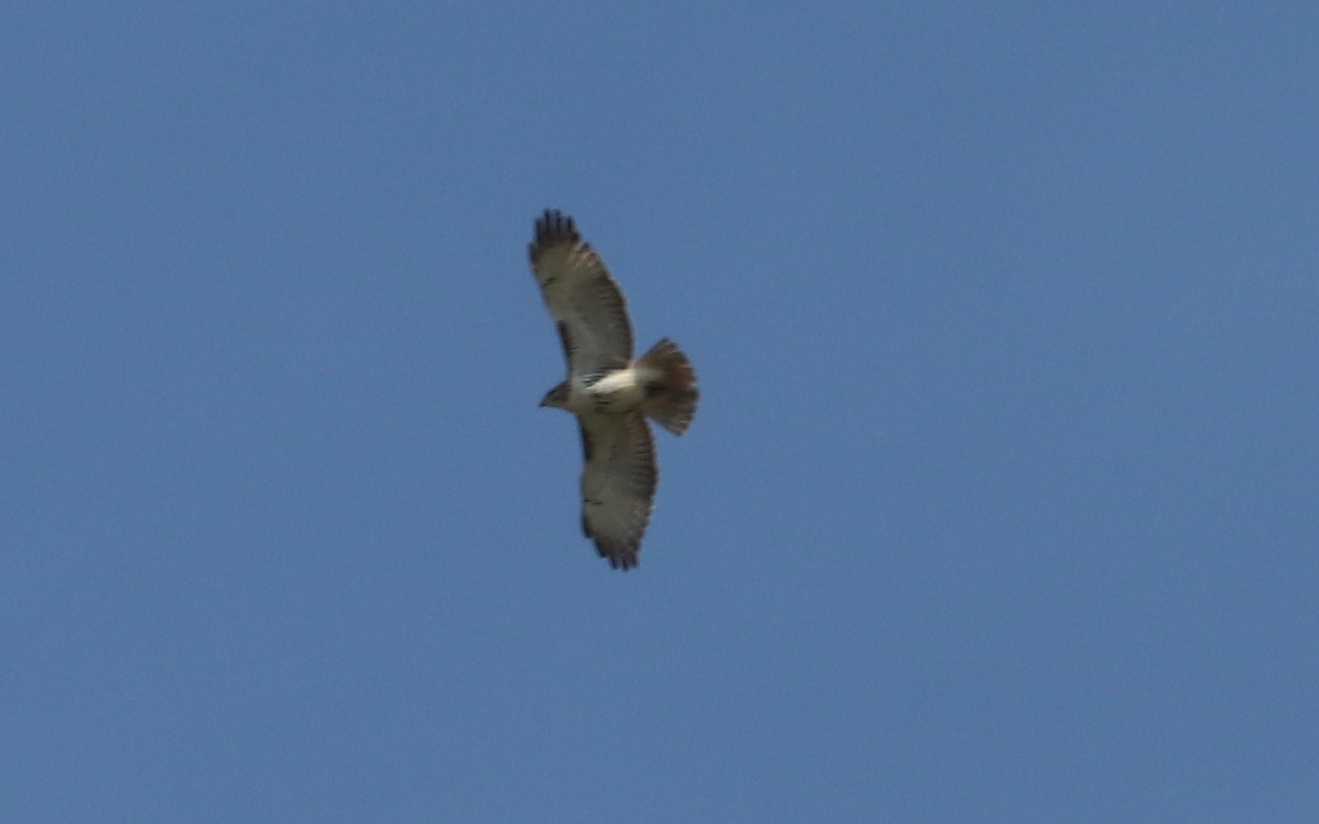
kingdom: Animalia
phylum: Chordata
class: Aves
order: Accipitriformes
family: Accipitridae
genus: Buteo
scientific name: Buteo jamaicensis
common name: Red-tailed hawk
